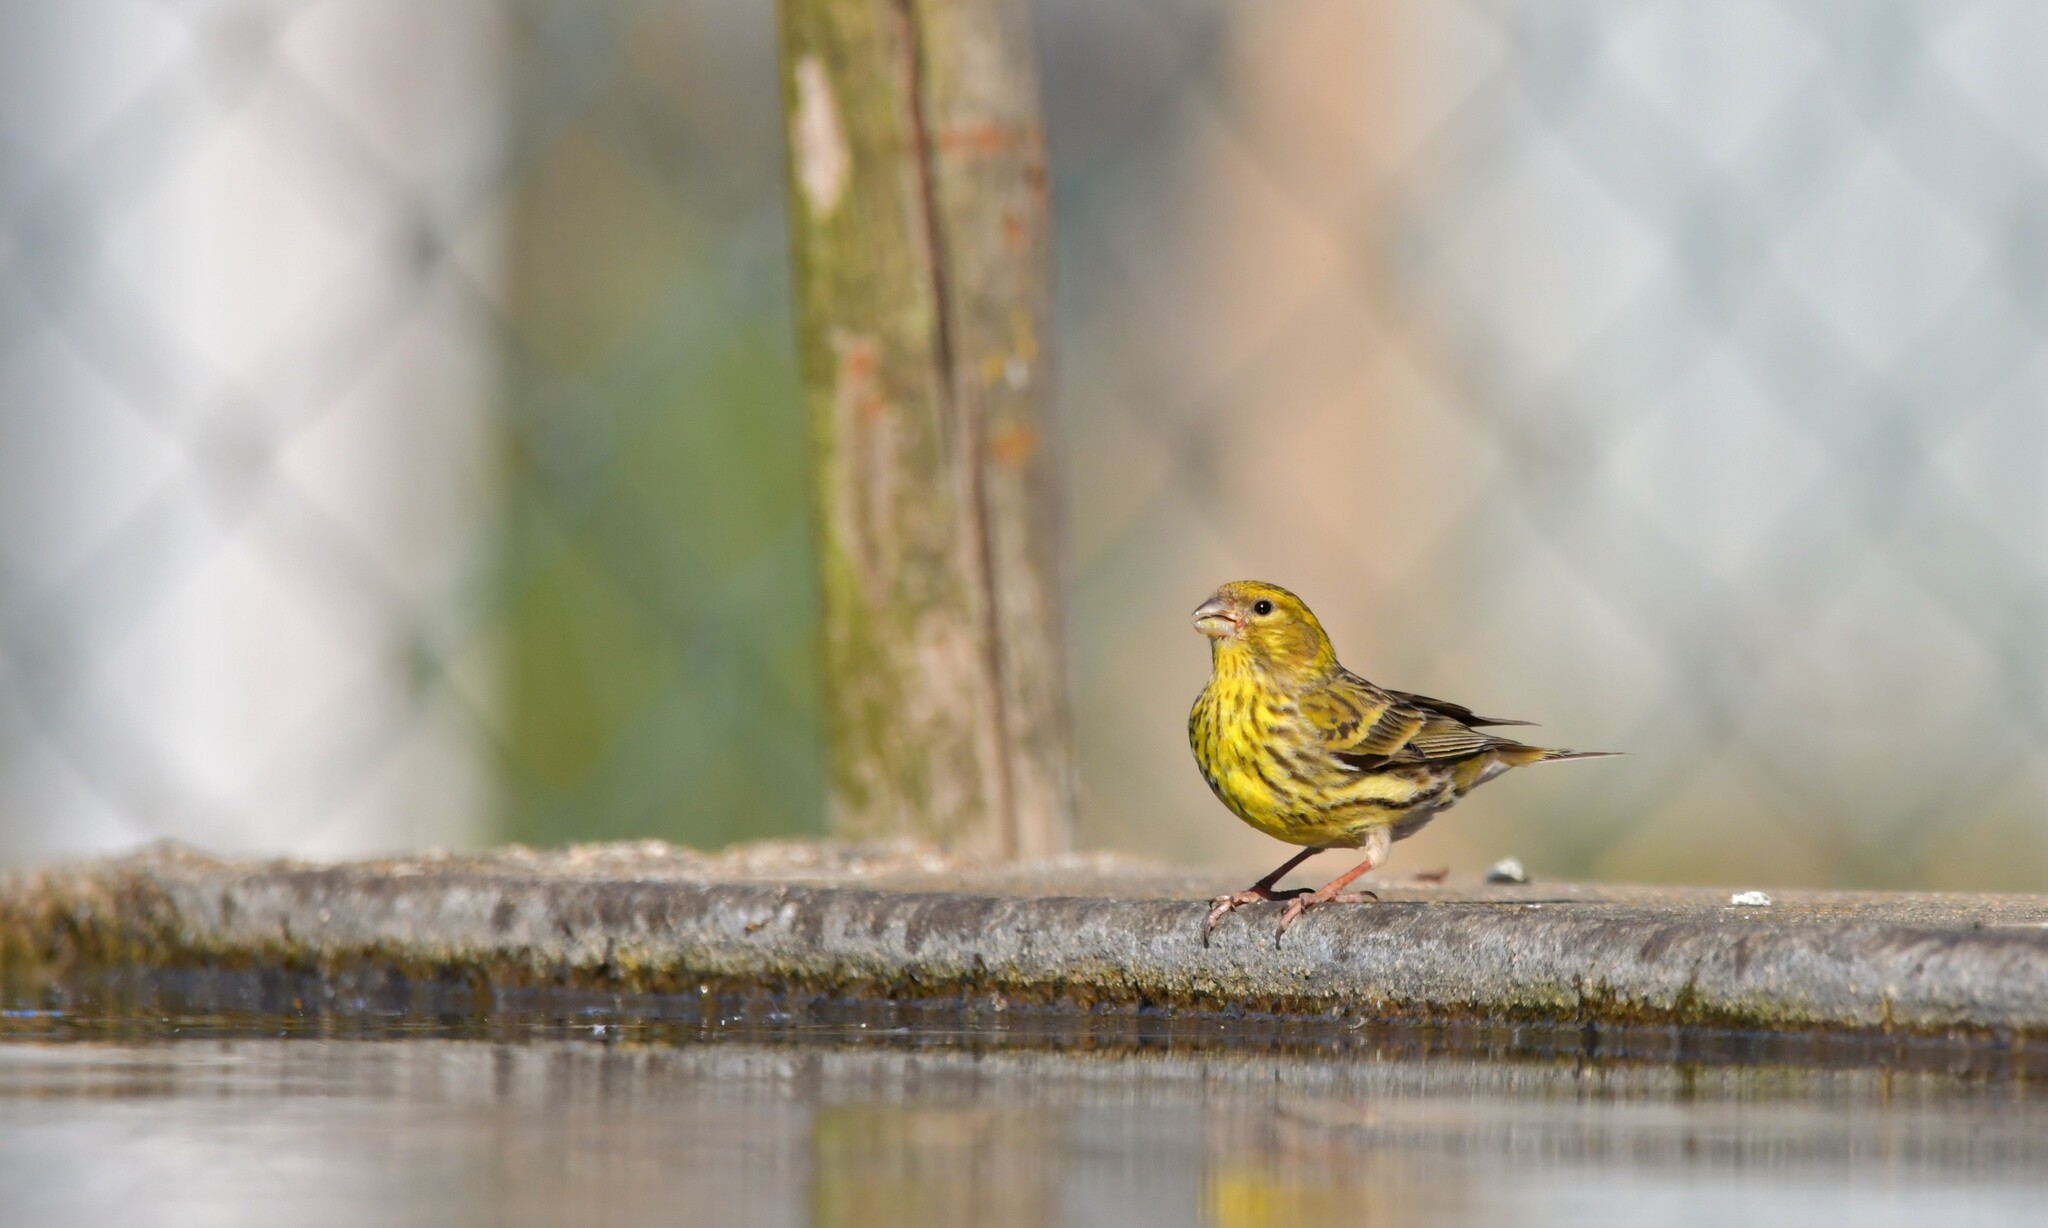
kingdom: Animalia
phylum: Chordata
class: Aves
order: Passeriformes
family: Fringillidae
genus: Serinus
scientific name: Serinus serinus
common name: European serin
